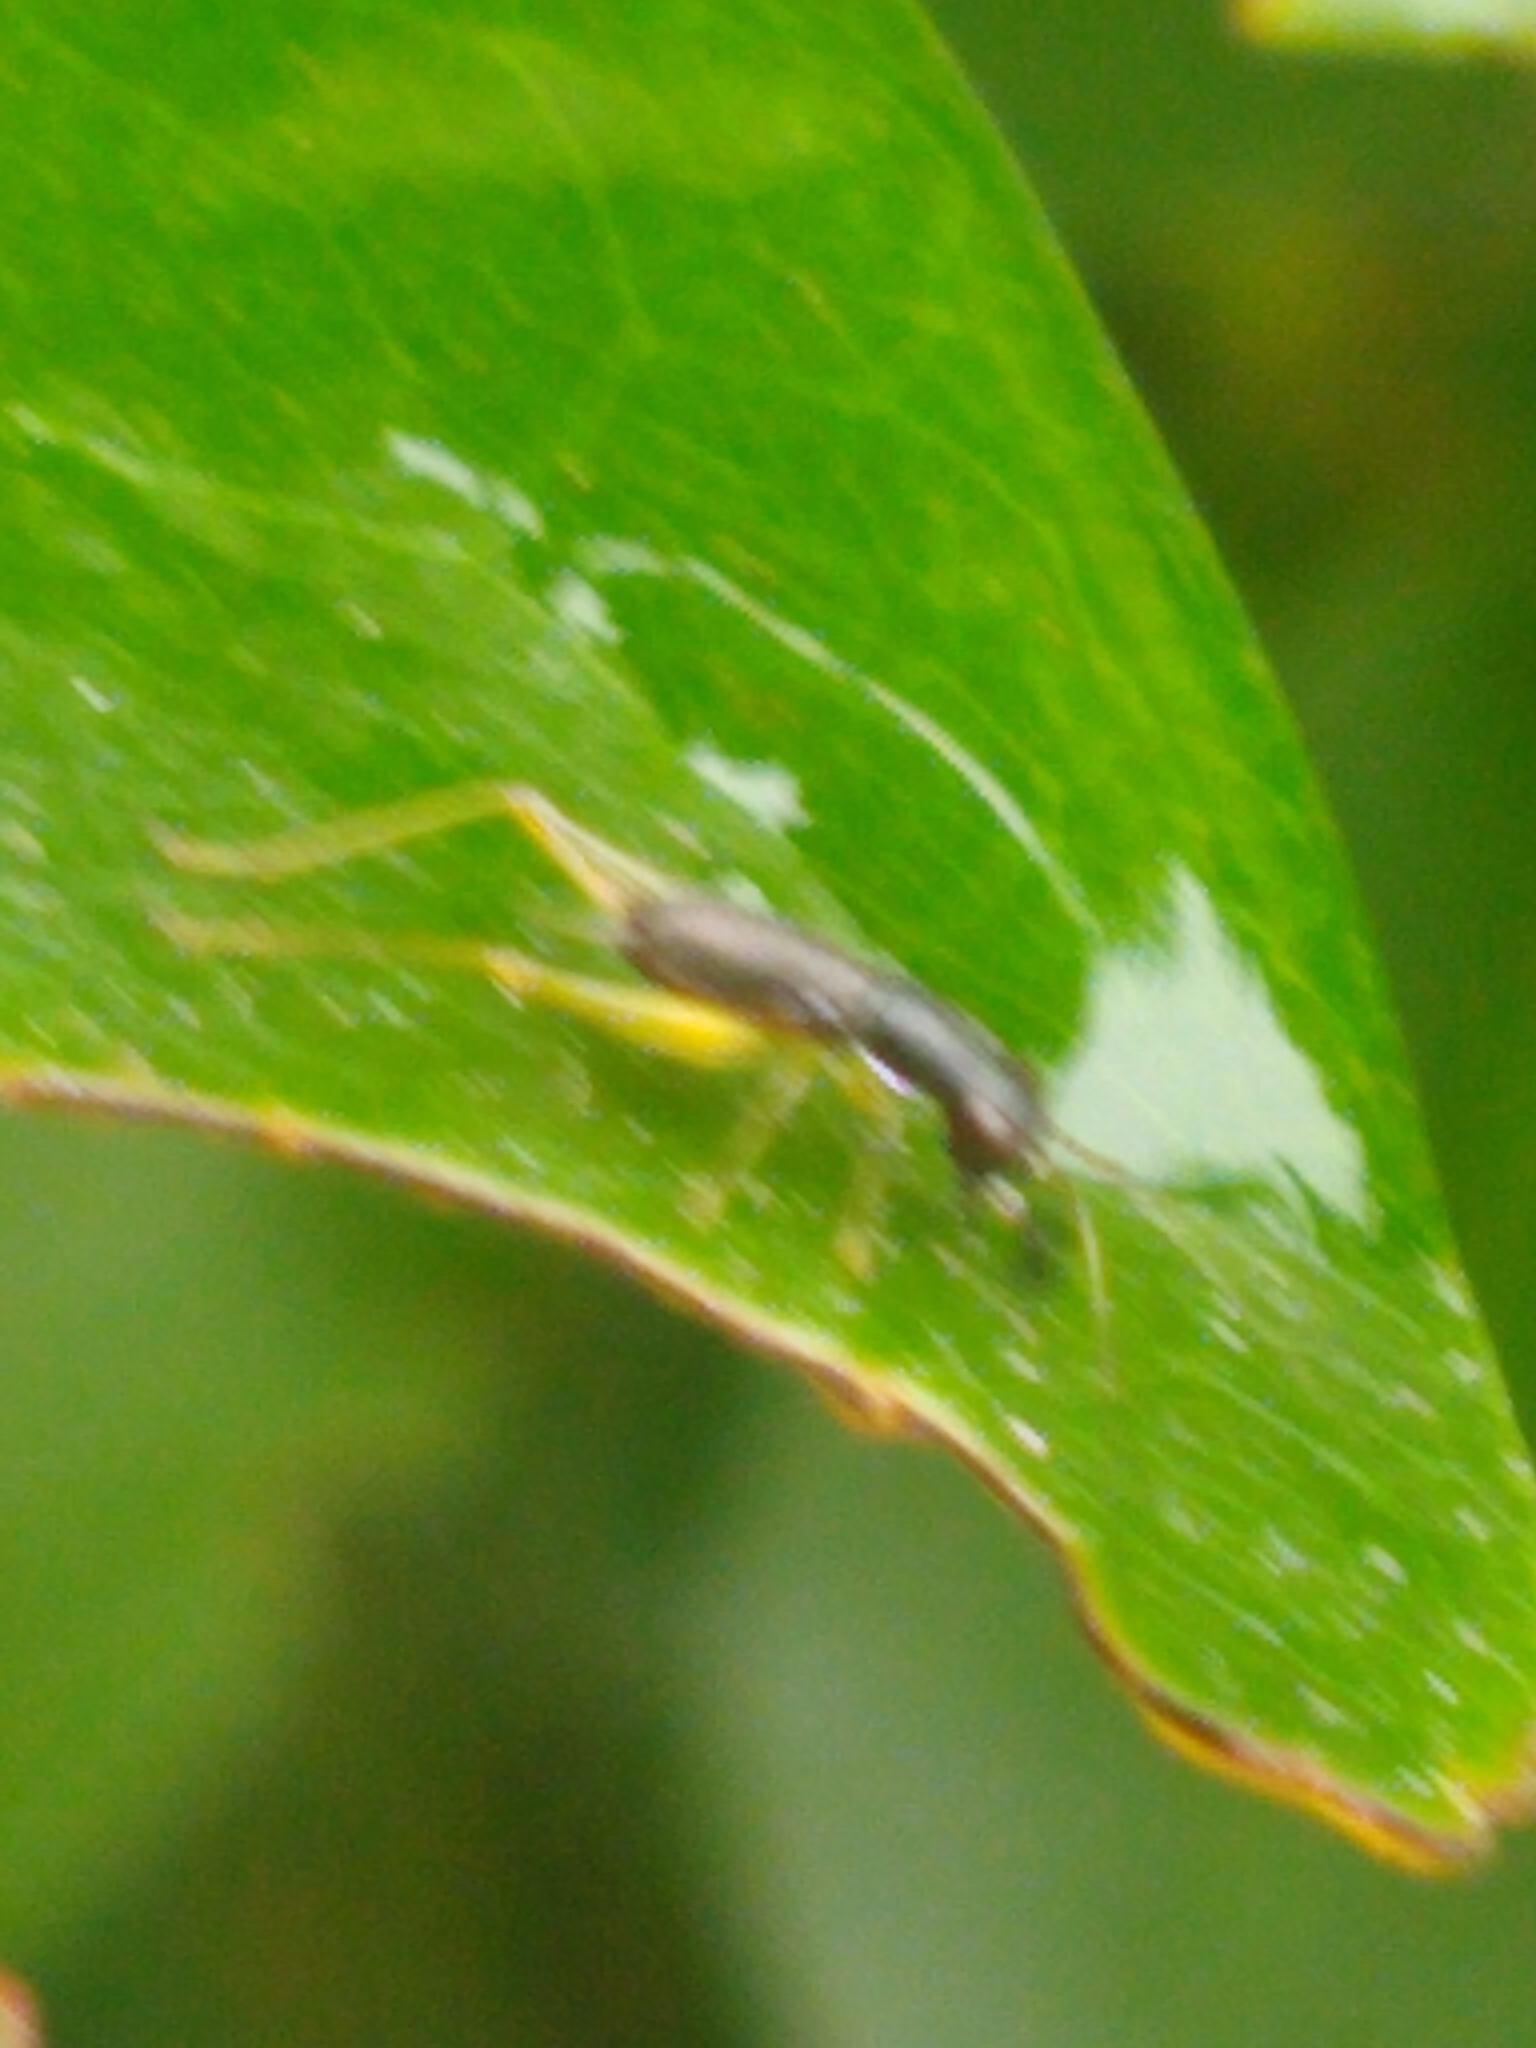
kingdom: Animalia
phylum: Arthropoda
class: Insecta
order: Orthoptera
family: Trigonidiidae
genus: Phyllopalpus
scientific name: Phyllopalpus pulchellus
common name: Handsome trig
